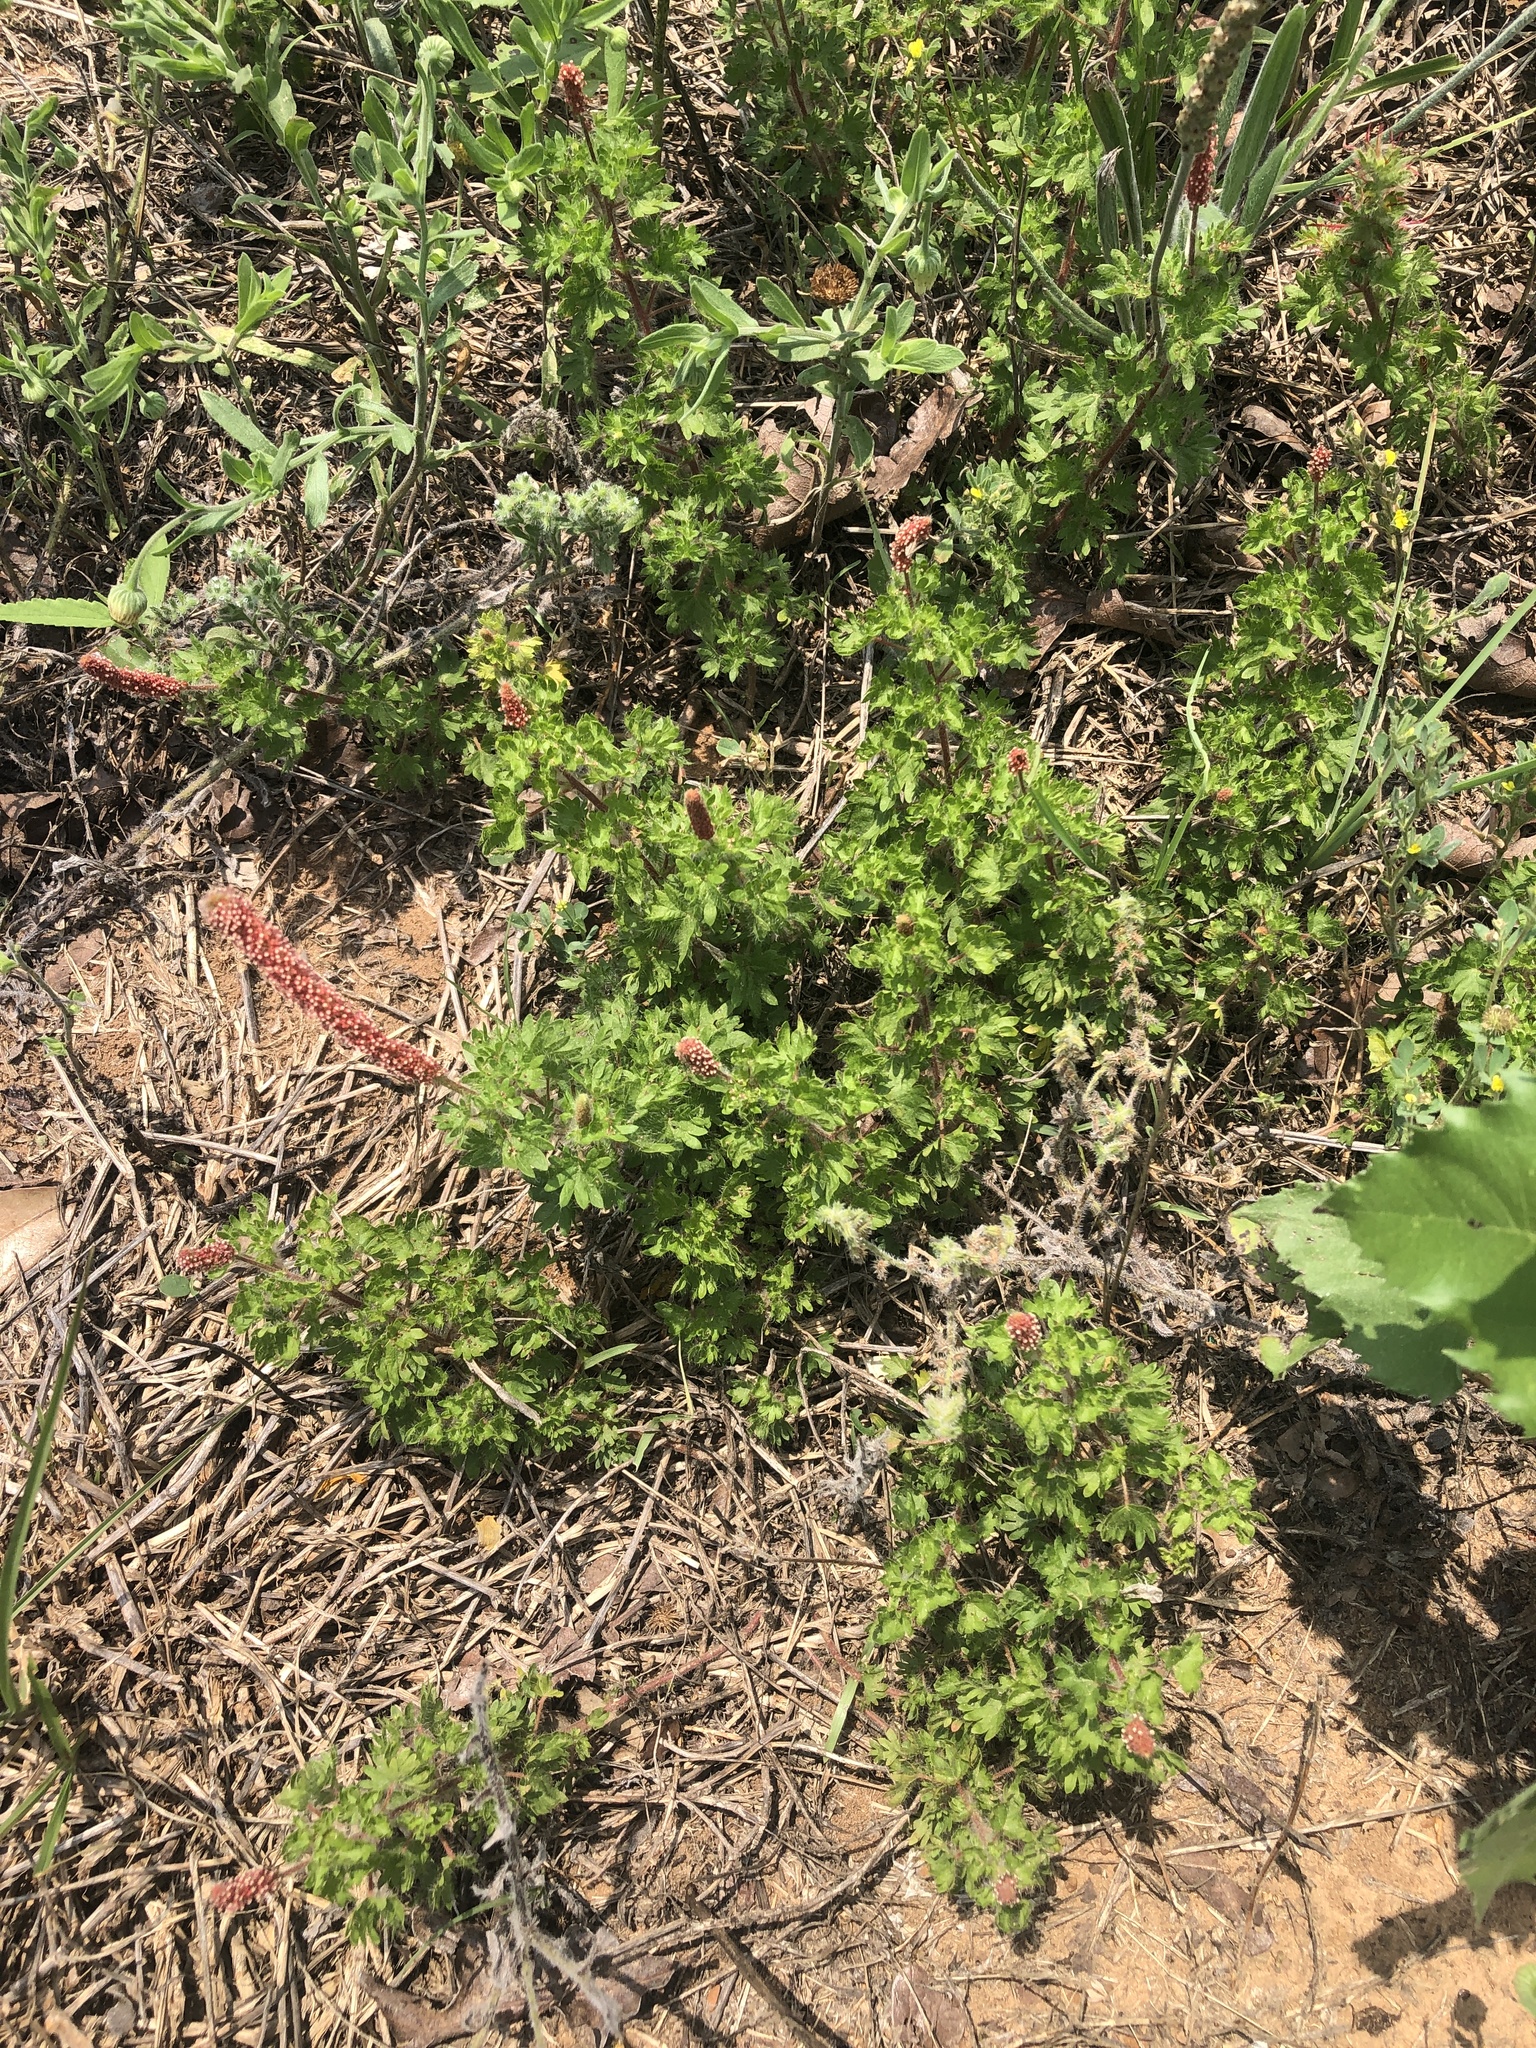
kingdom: Plantae
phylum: Tracheophyta
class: Magnoliopsida
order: Malpighiales
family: Euphorbiaceae
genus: Acalypha
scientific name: Acalypha radians
